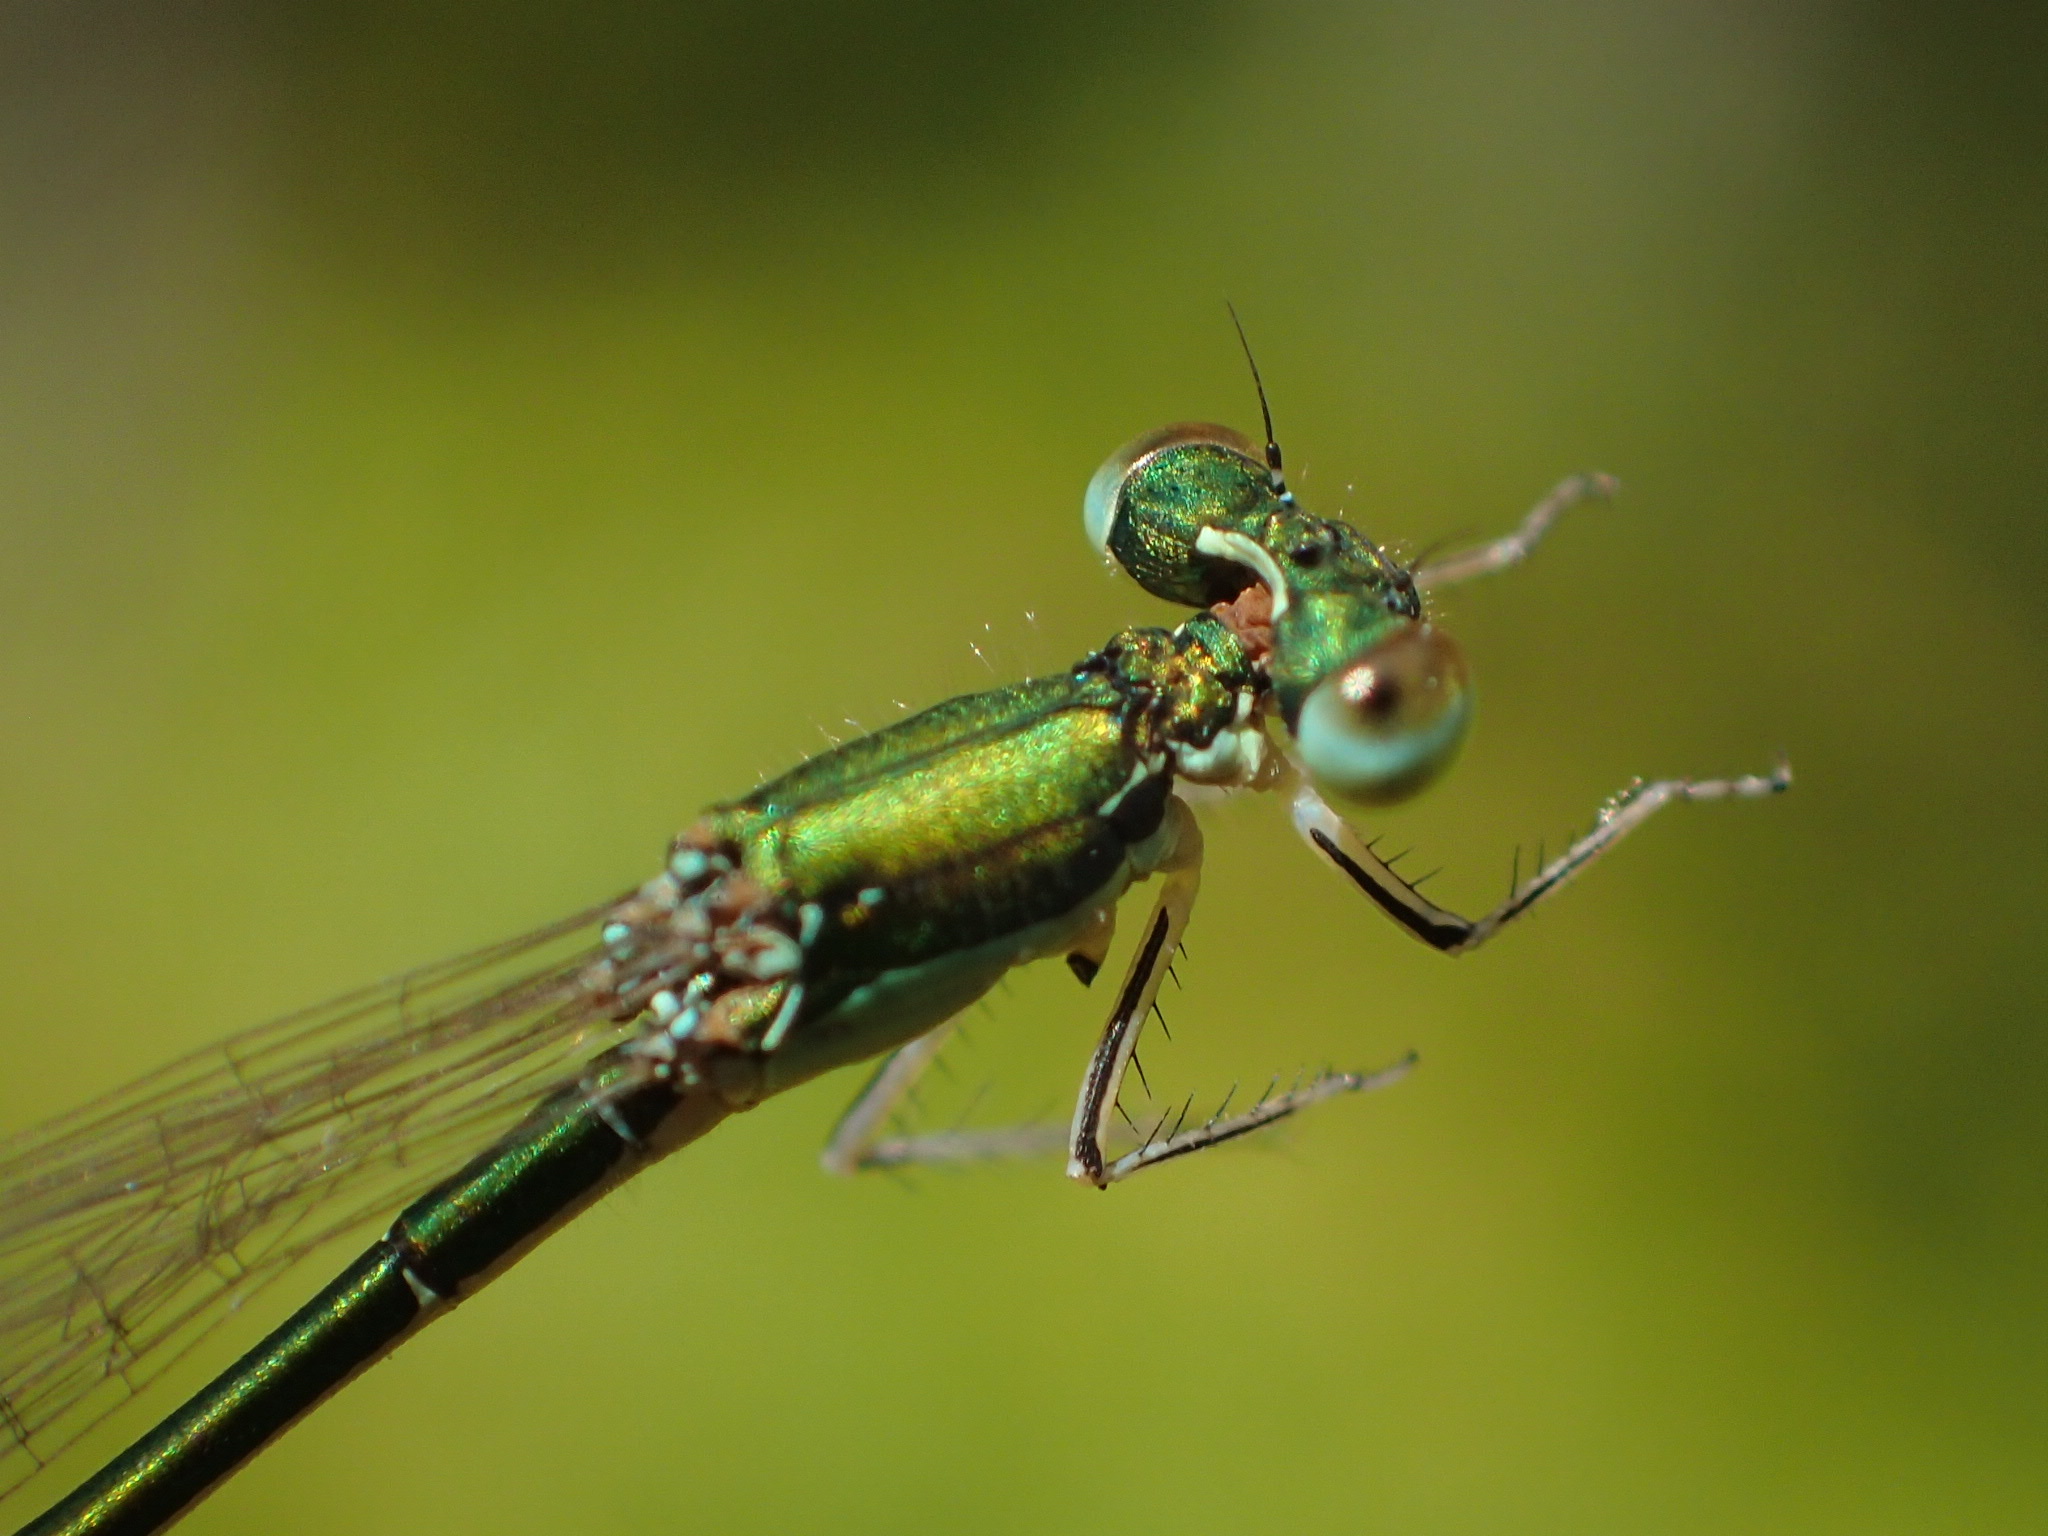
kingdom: Animalia
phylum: Arthropoda
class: Insecta
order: Odonata
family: Coenagrionidae
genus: Nehalennia
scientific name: Nehalennia irene
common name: Sedge sprite
